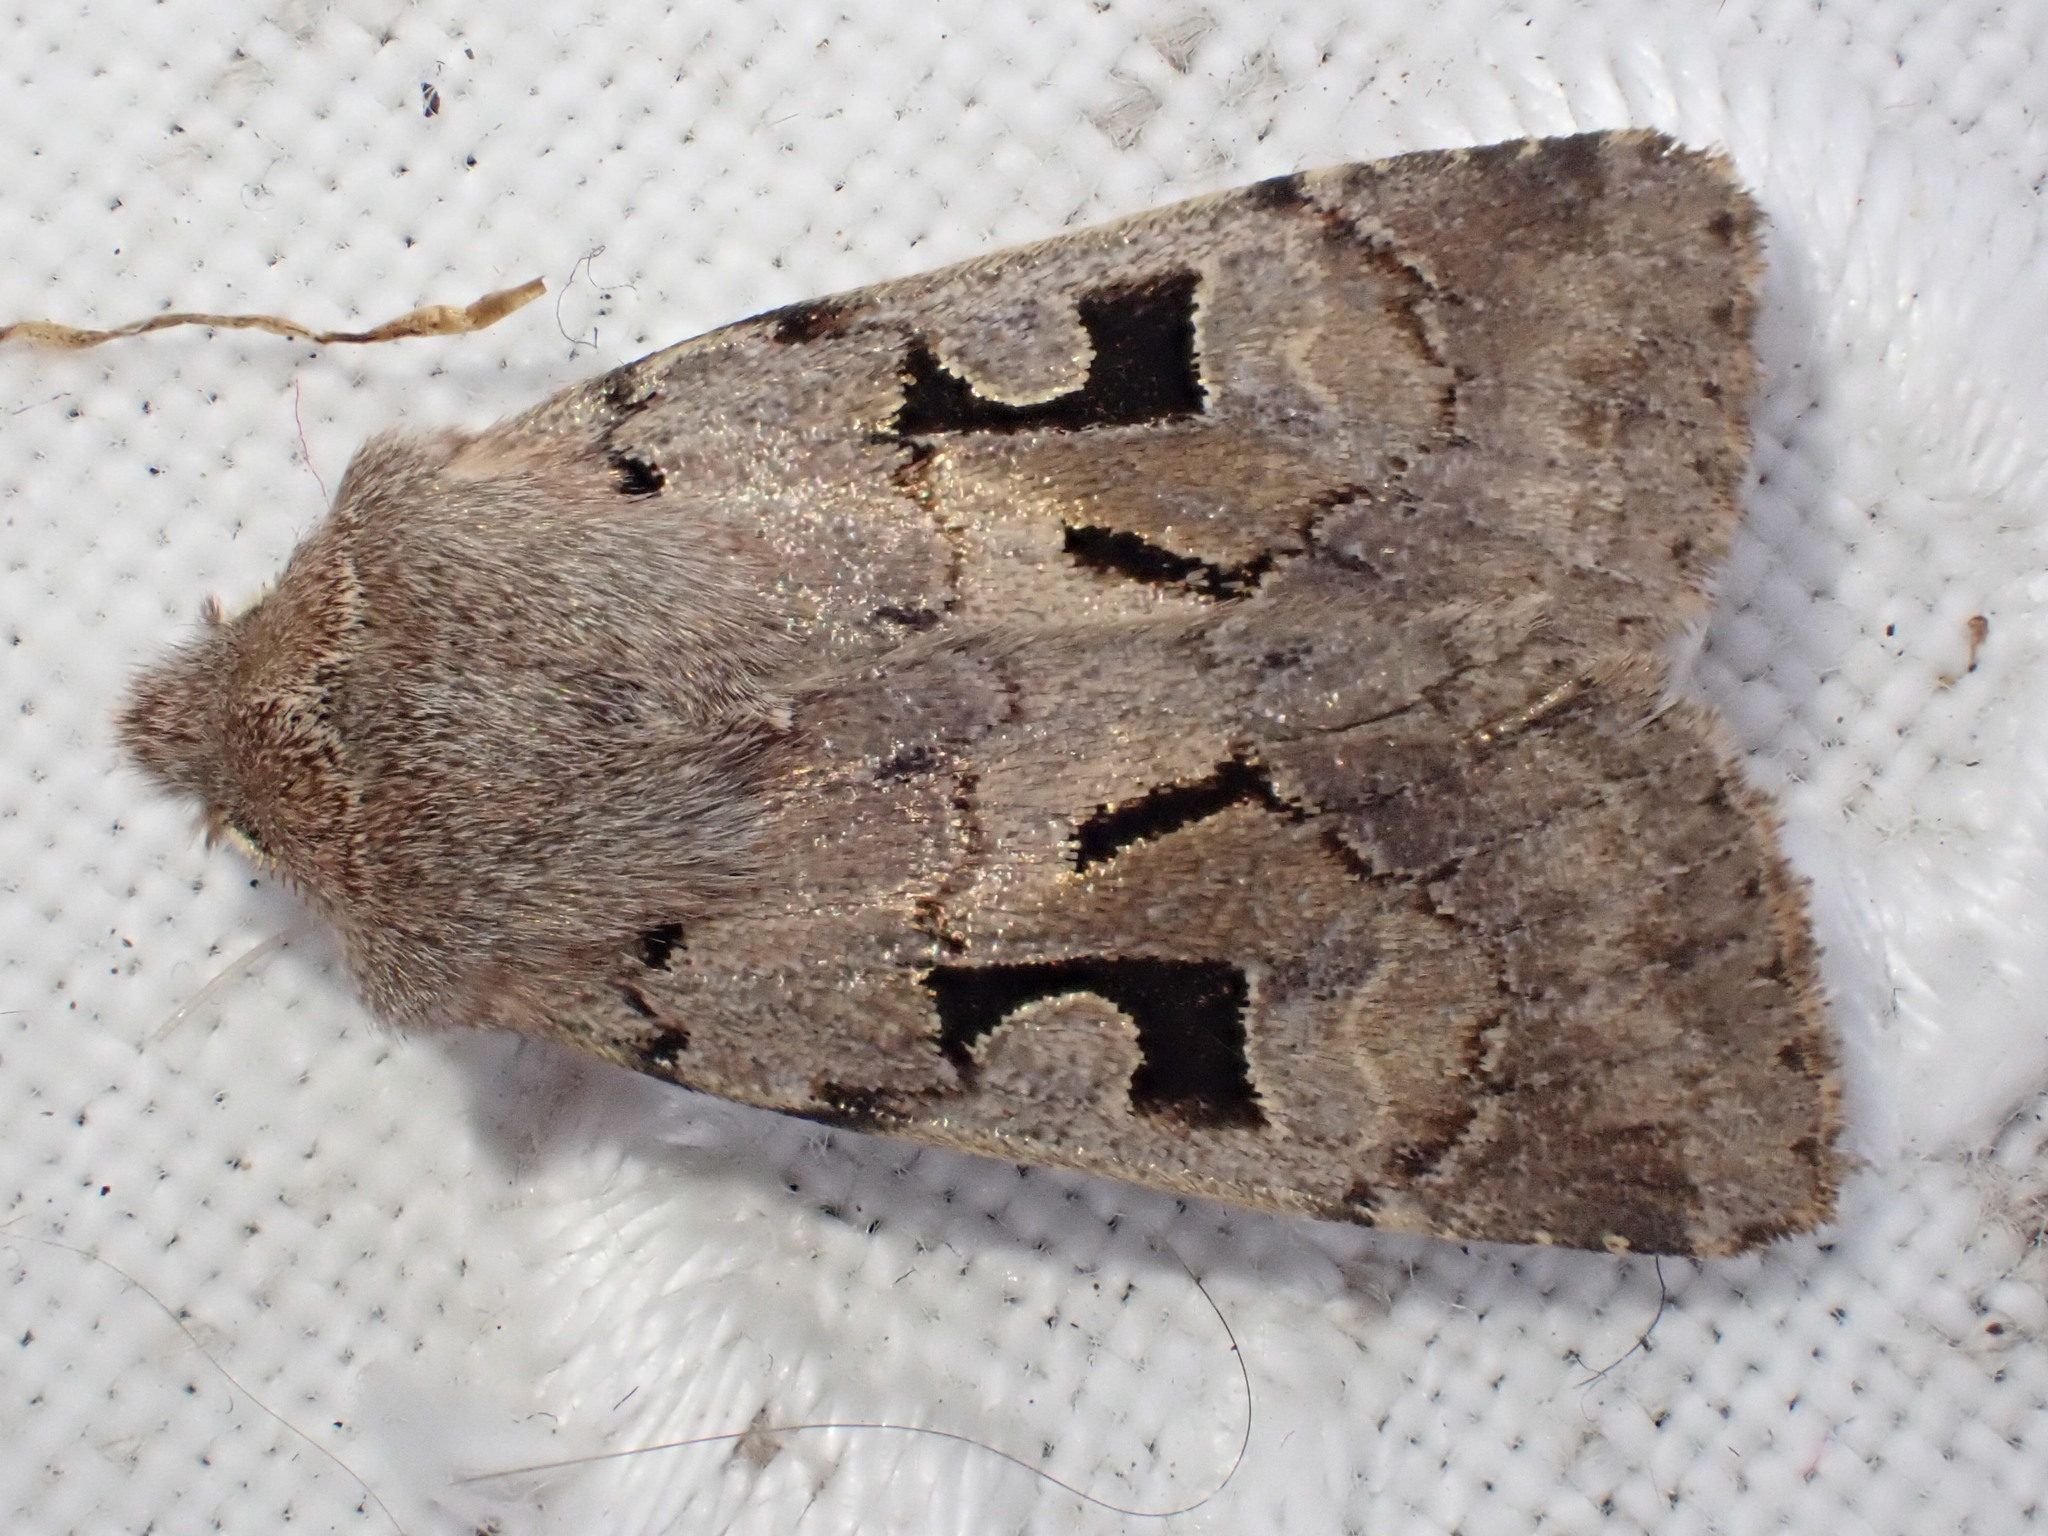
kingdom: Animalia
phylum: Arthropoda
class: Insecta
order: Lepidoptera
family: Noctuidae
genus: Orthosia
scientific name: Orthosia gothica
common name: Hebrew character
